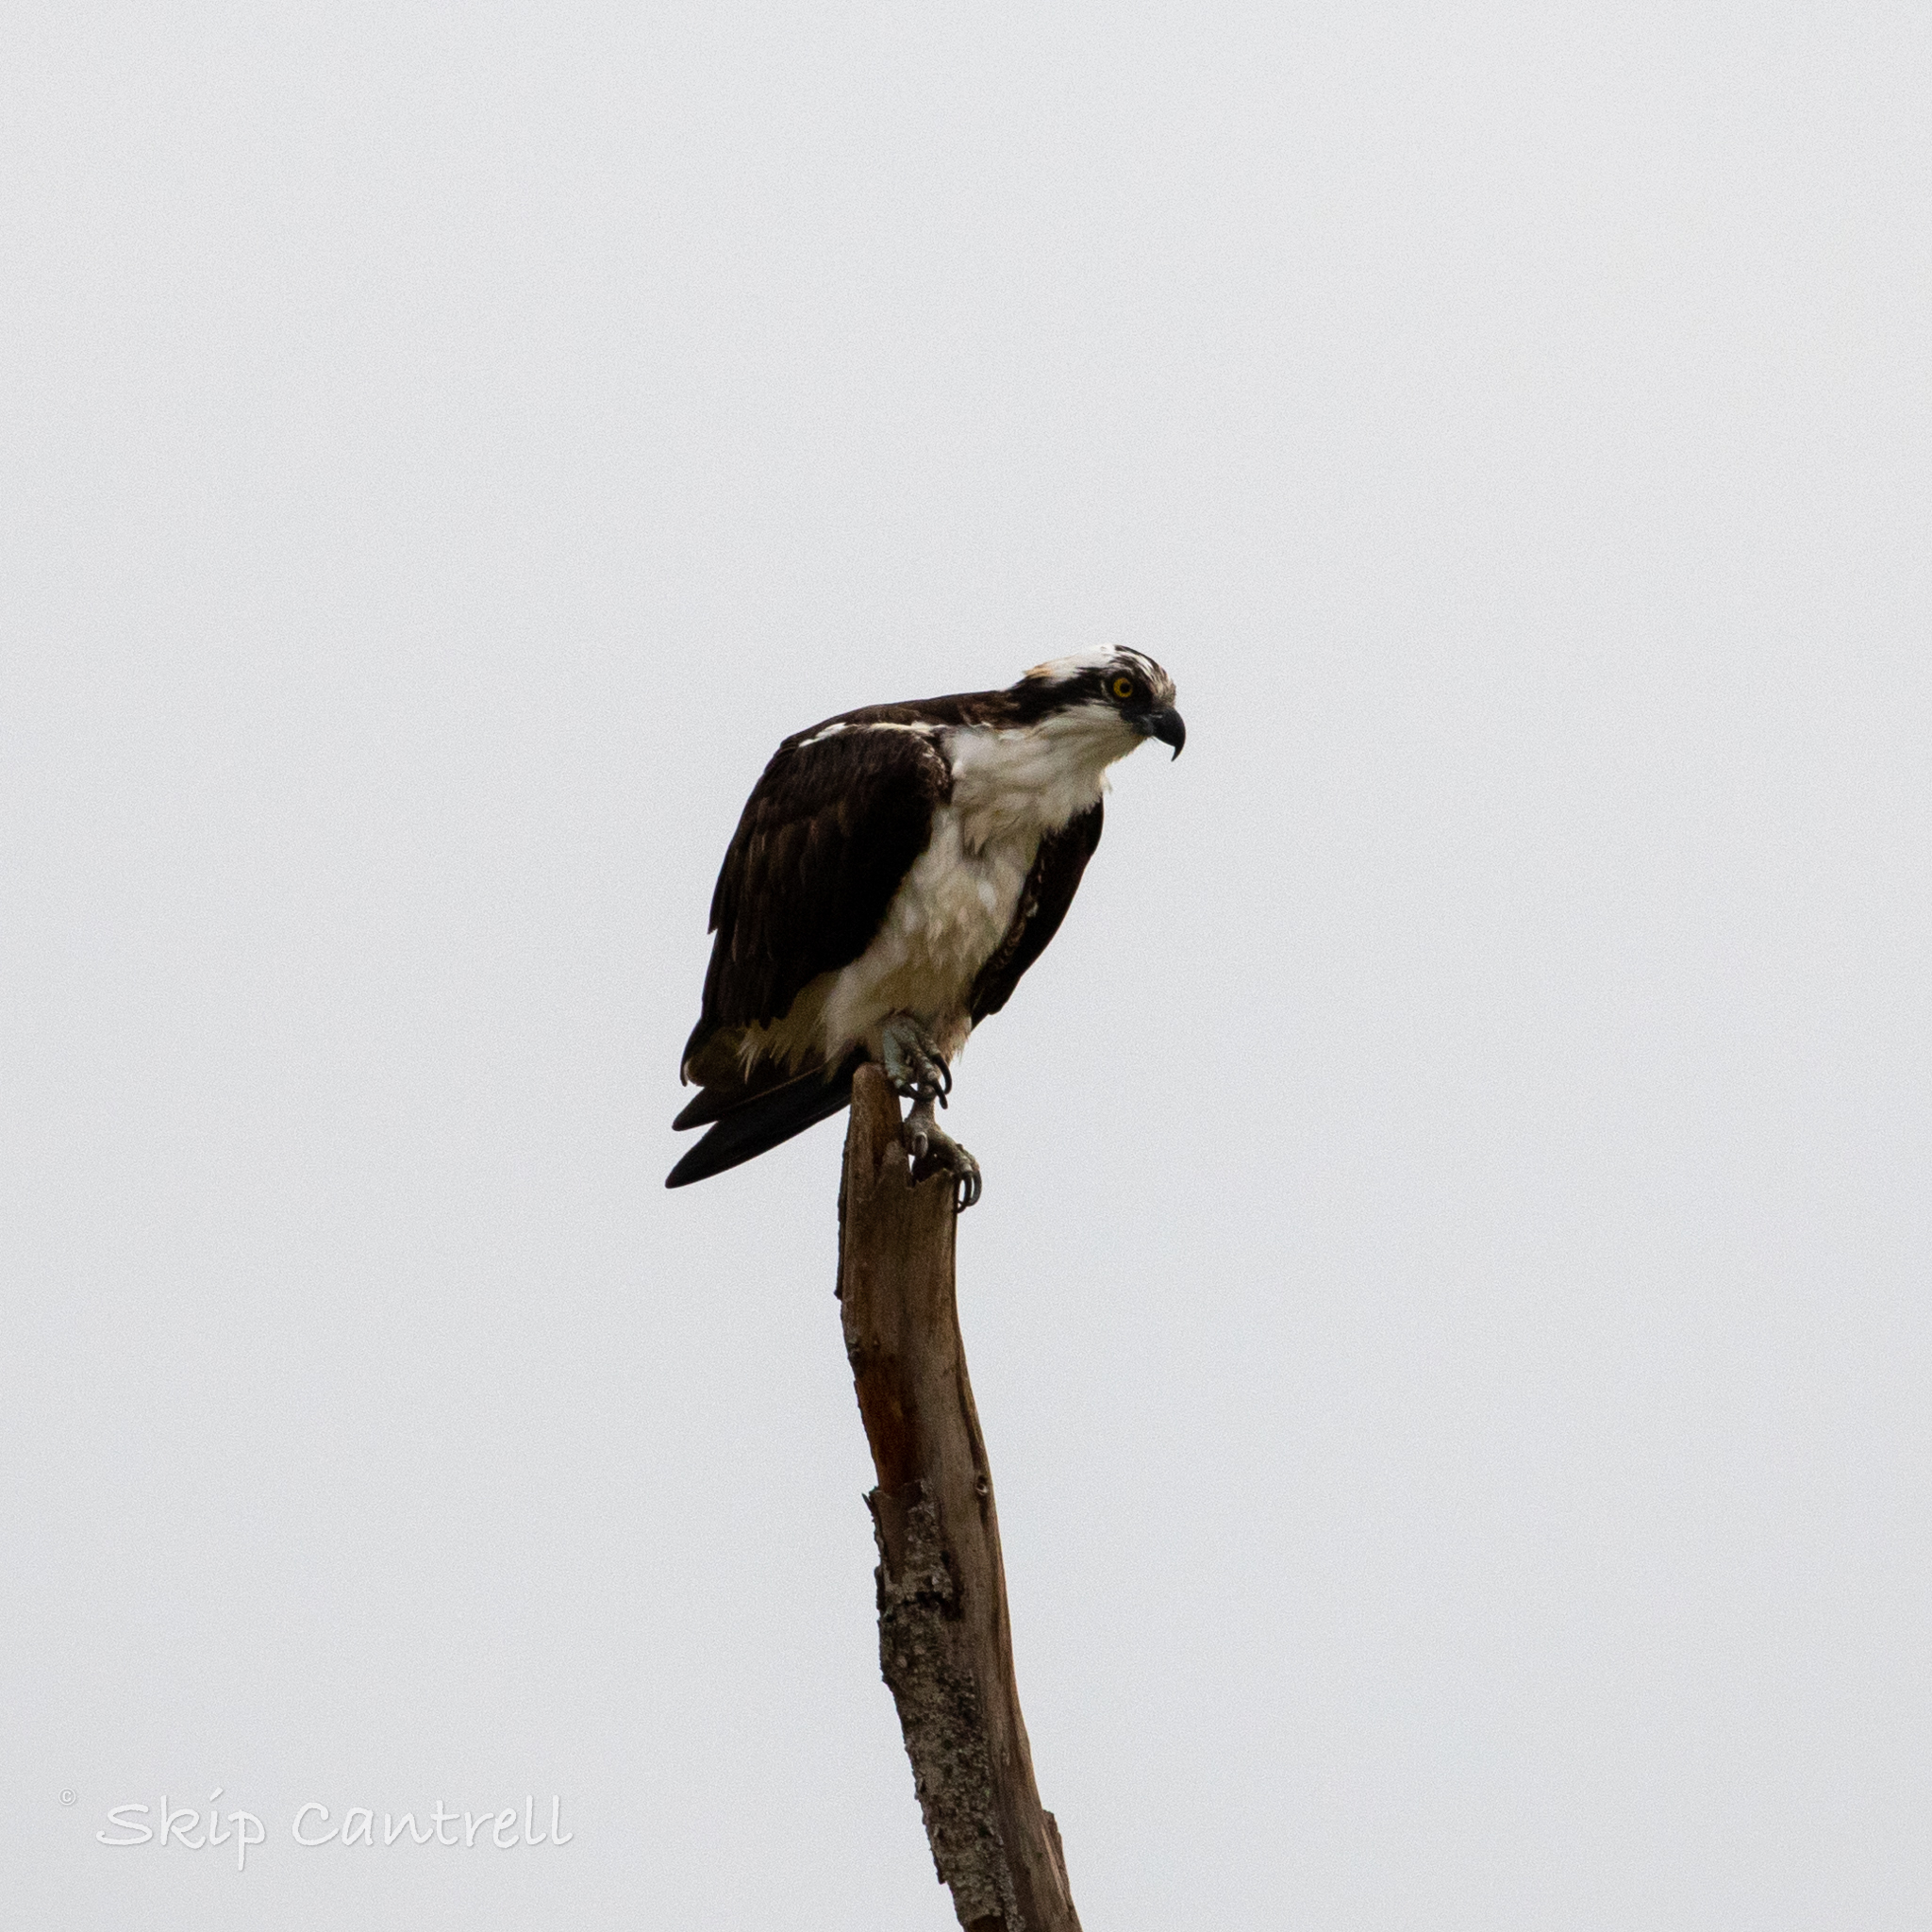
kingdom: Animalia
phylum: Chordata
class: Aves
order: Accipitriformes
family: Pandionidae
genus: Pandion
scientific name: Pandion haliaetus
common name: Osprey
